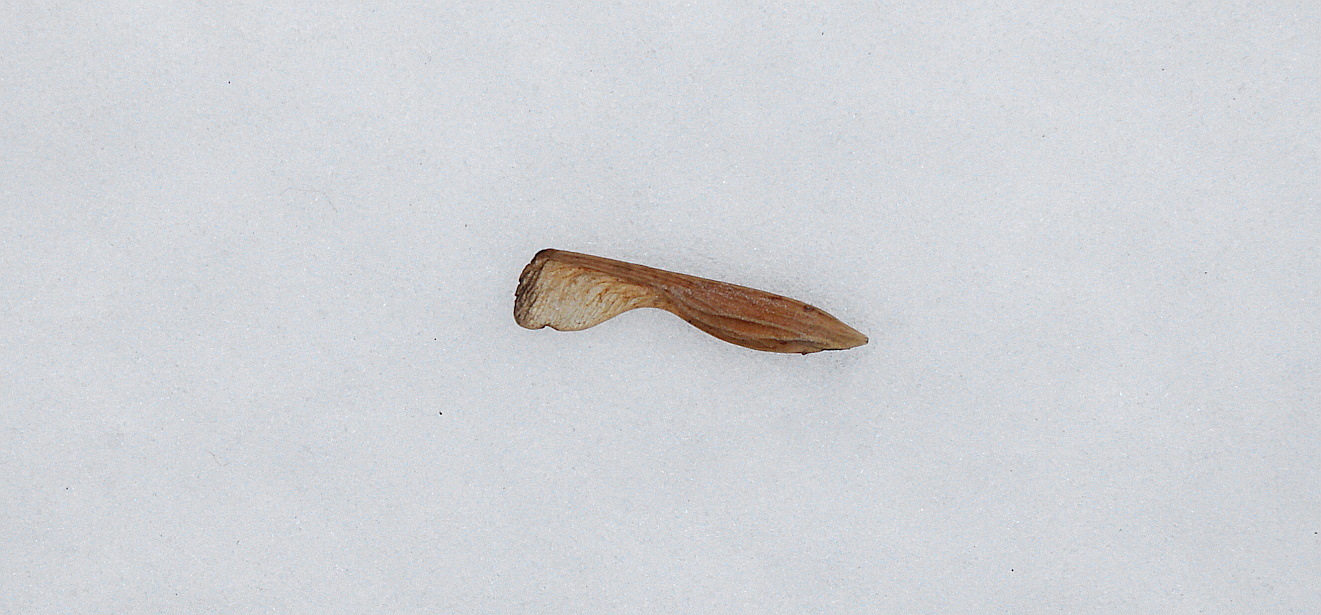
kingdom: Plantae
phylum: Tracheophyta
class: Magnoliopsida
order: Sapindales
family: Sapindaceae
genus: Acer
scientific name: Acer negundo
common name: Ashleaf maple
